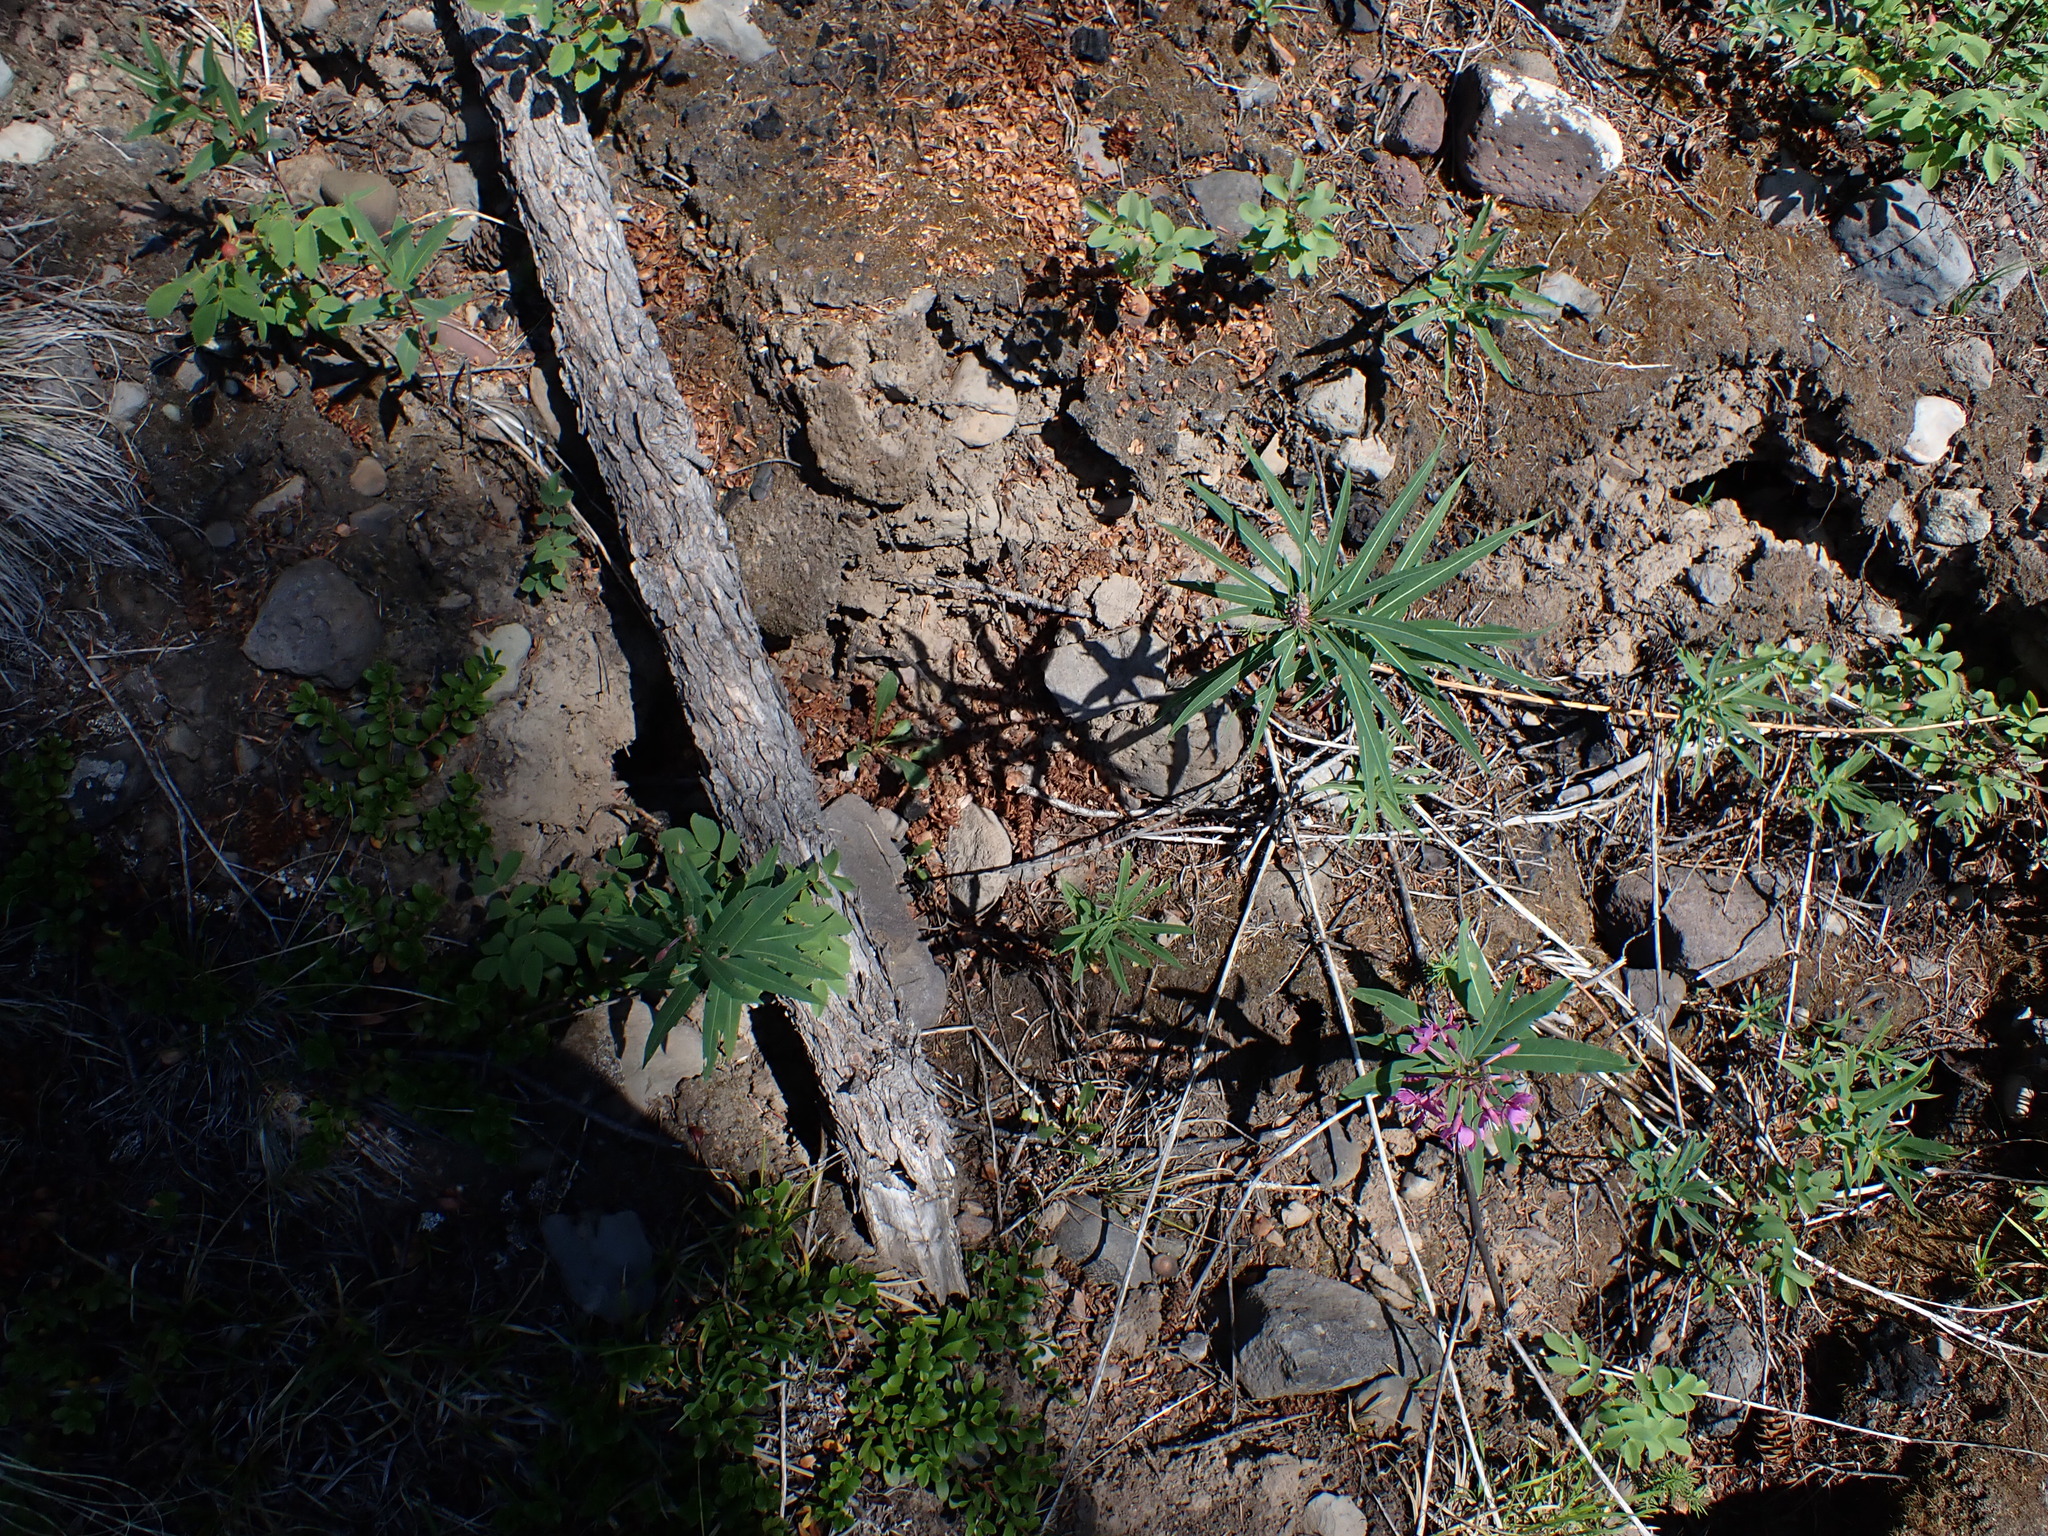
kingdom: Plantae
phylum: Tracheophyta
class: Magnoliopsida
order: Myrtales
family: Onagraceae
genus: Chamaenerion
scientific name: Chamaenerion angustifolium
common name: Fireweed
